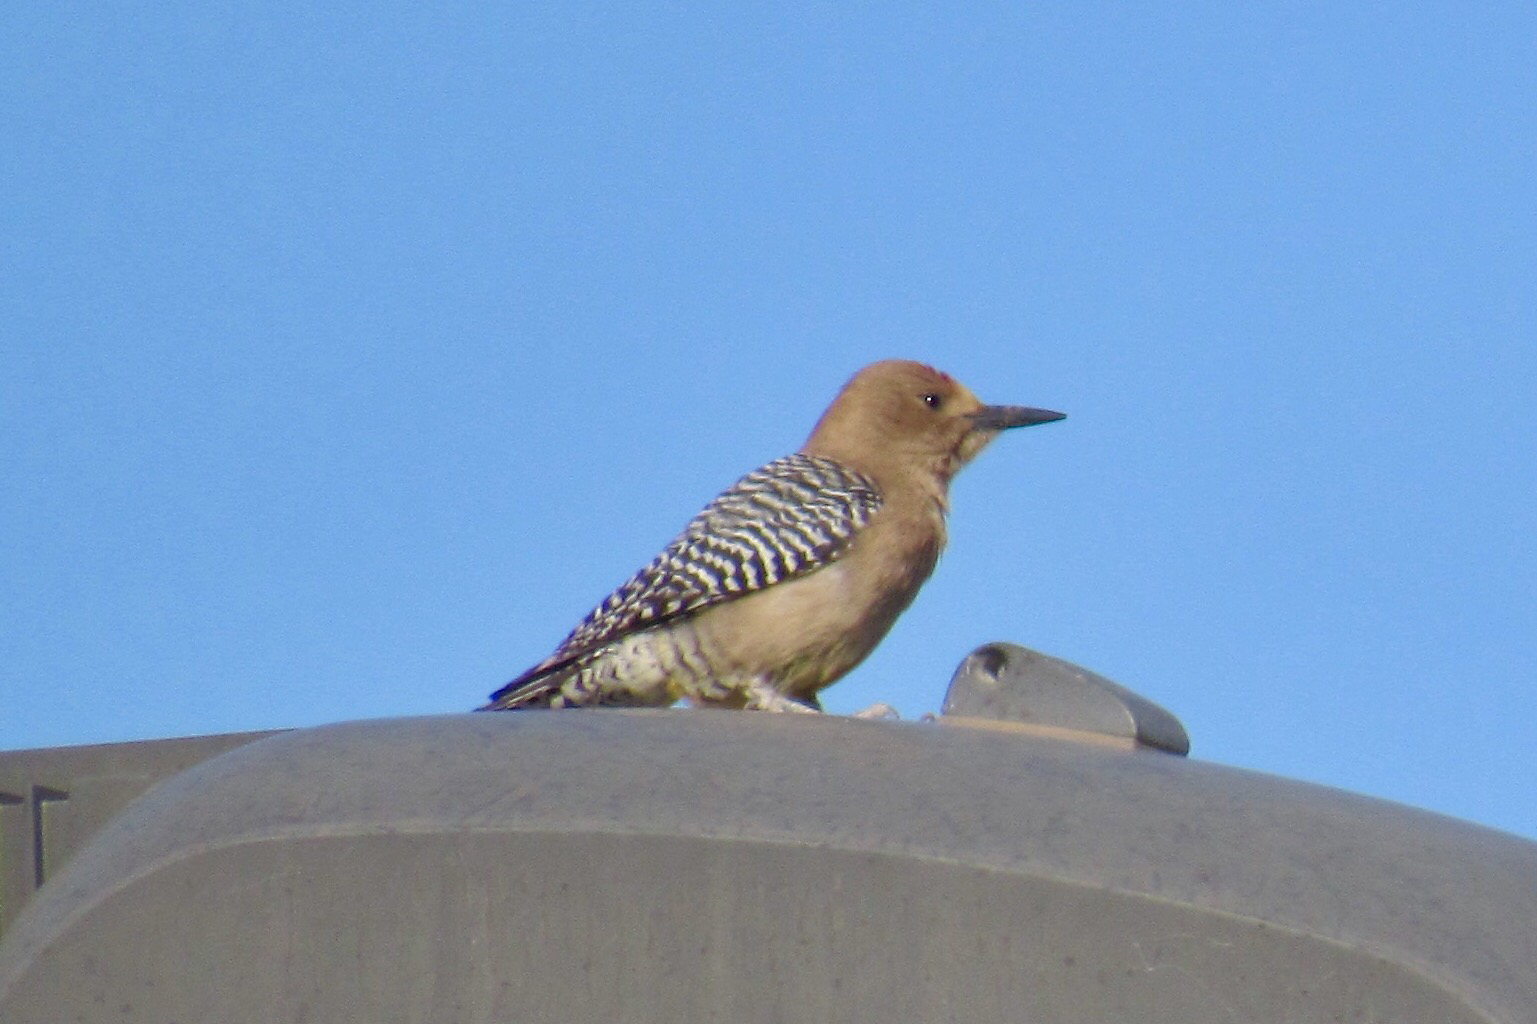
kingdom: Animalia
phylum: Chordata
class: Aves
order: Piciformes
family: Picidae
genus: Melanerpes
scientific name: Melanerpes uropygialis
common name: Gila woodpecker
